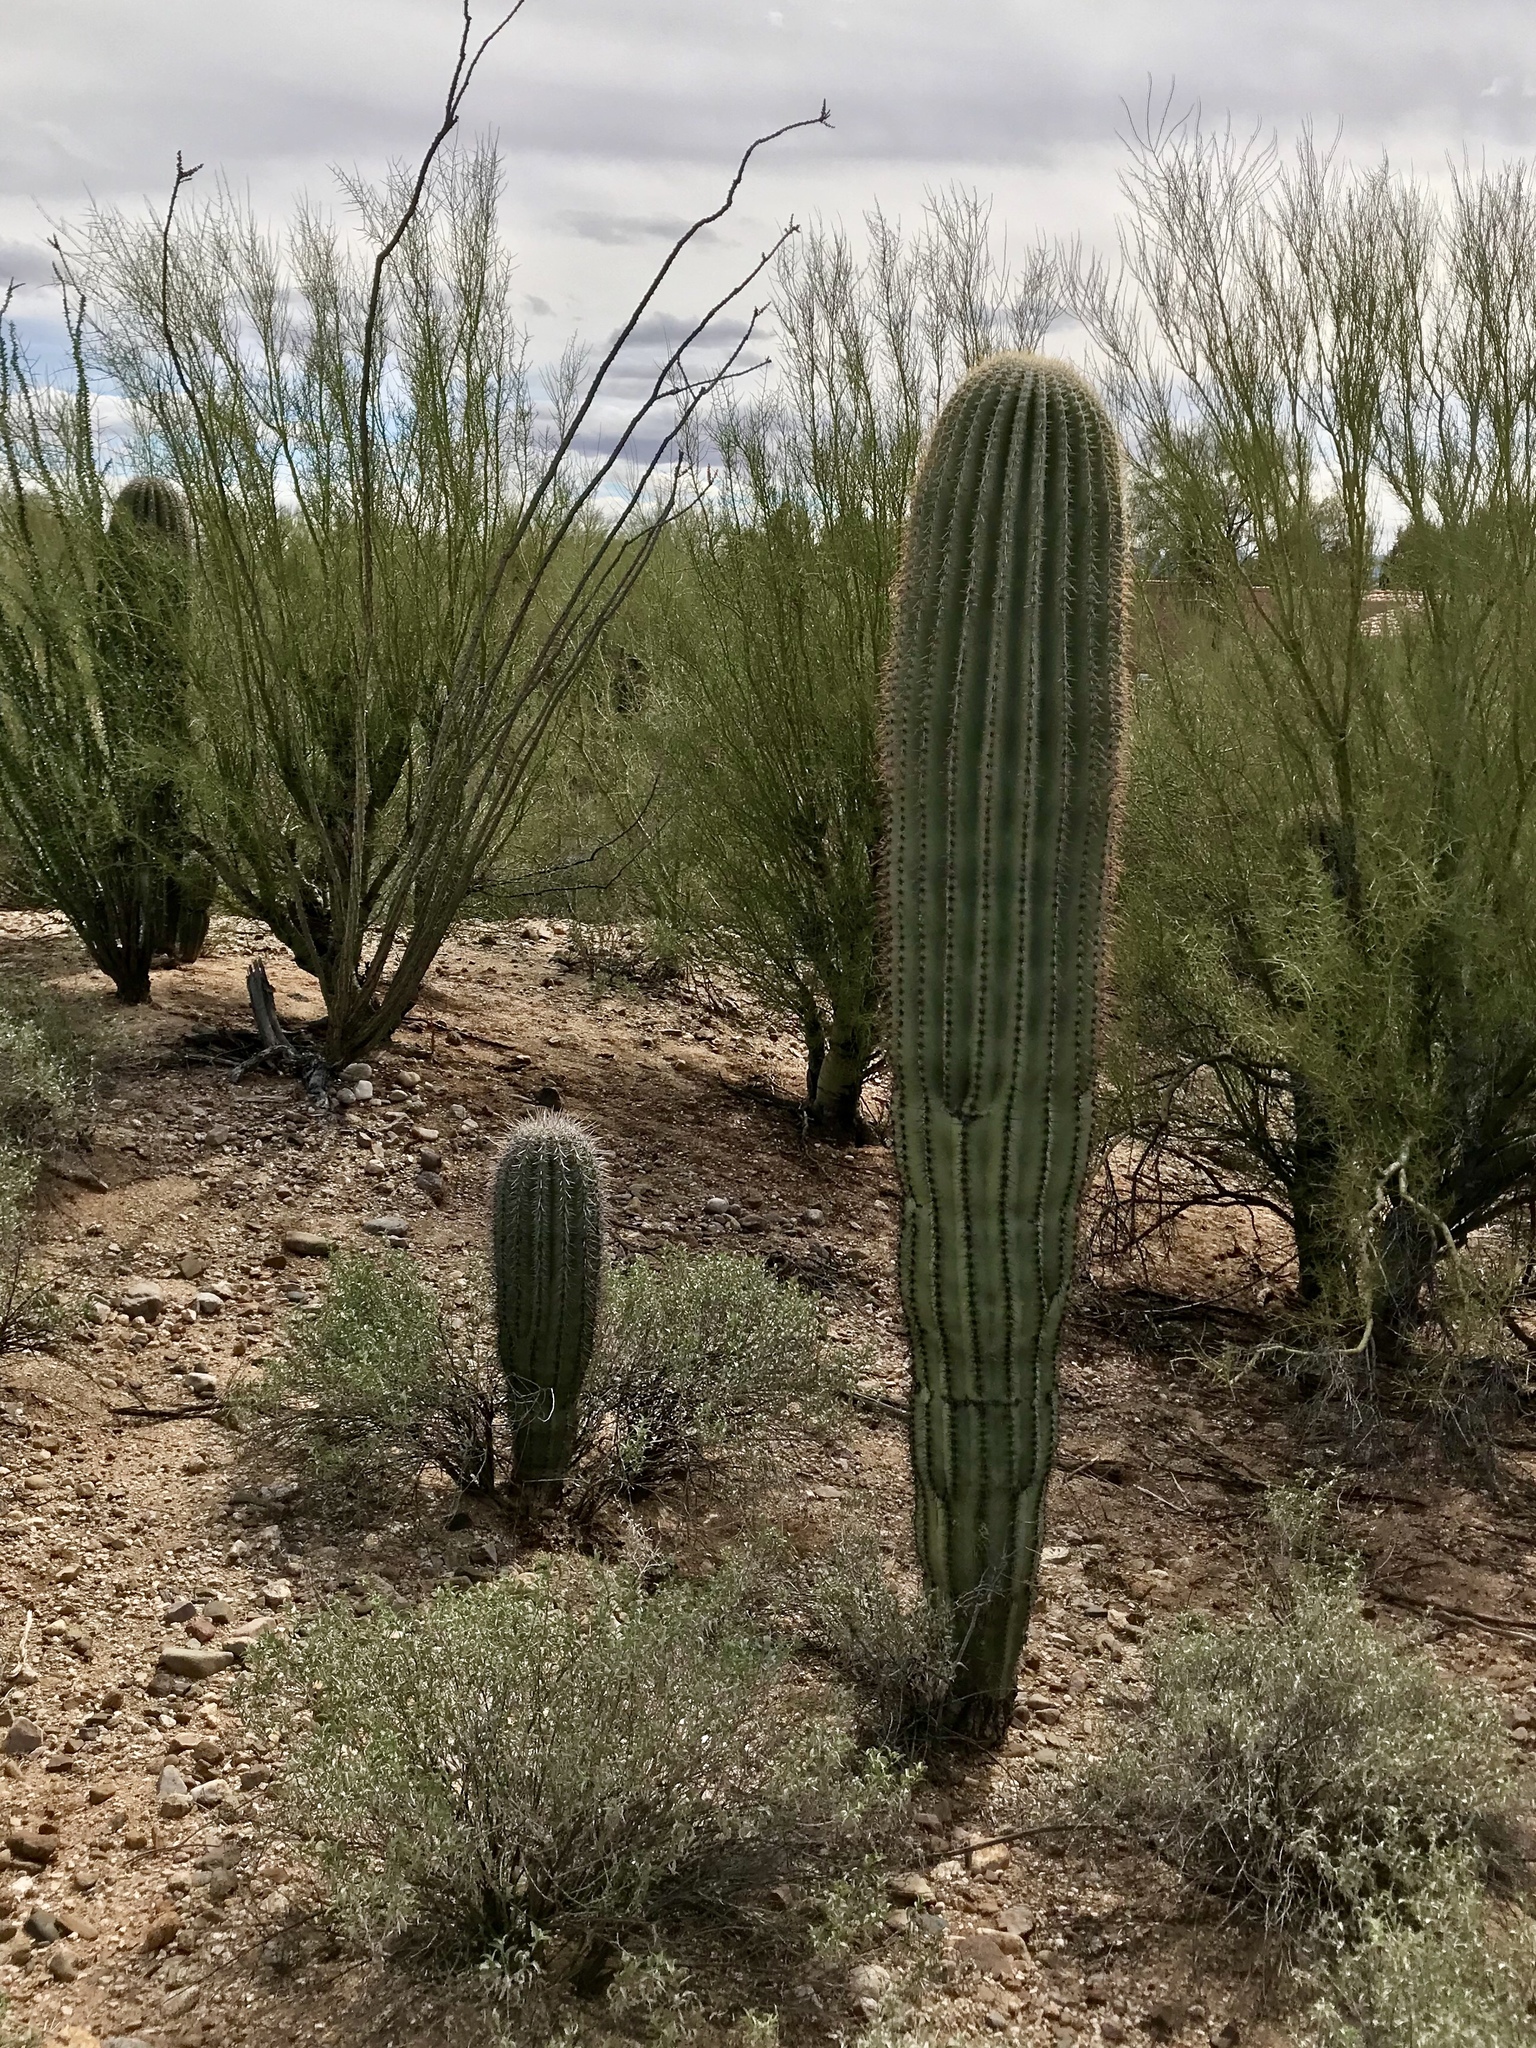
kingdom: Plantae
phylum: Tracheophyta
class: Magnoliopsida
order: Caryophyllales
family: Cactaceae
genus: Carnegiea
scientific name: Carnegiea gigantea
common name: Saguaro
